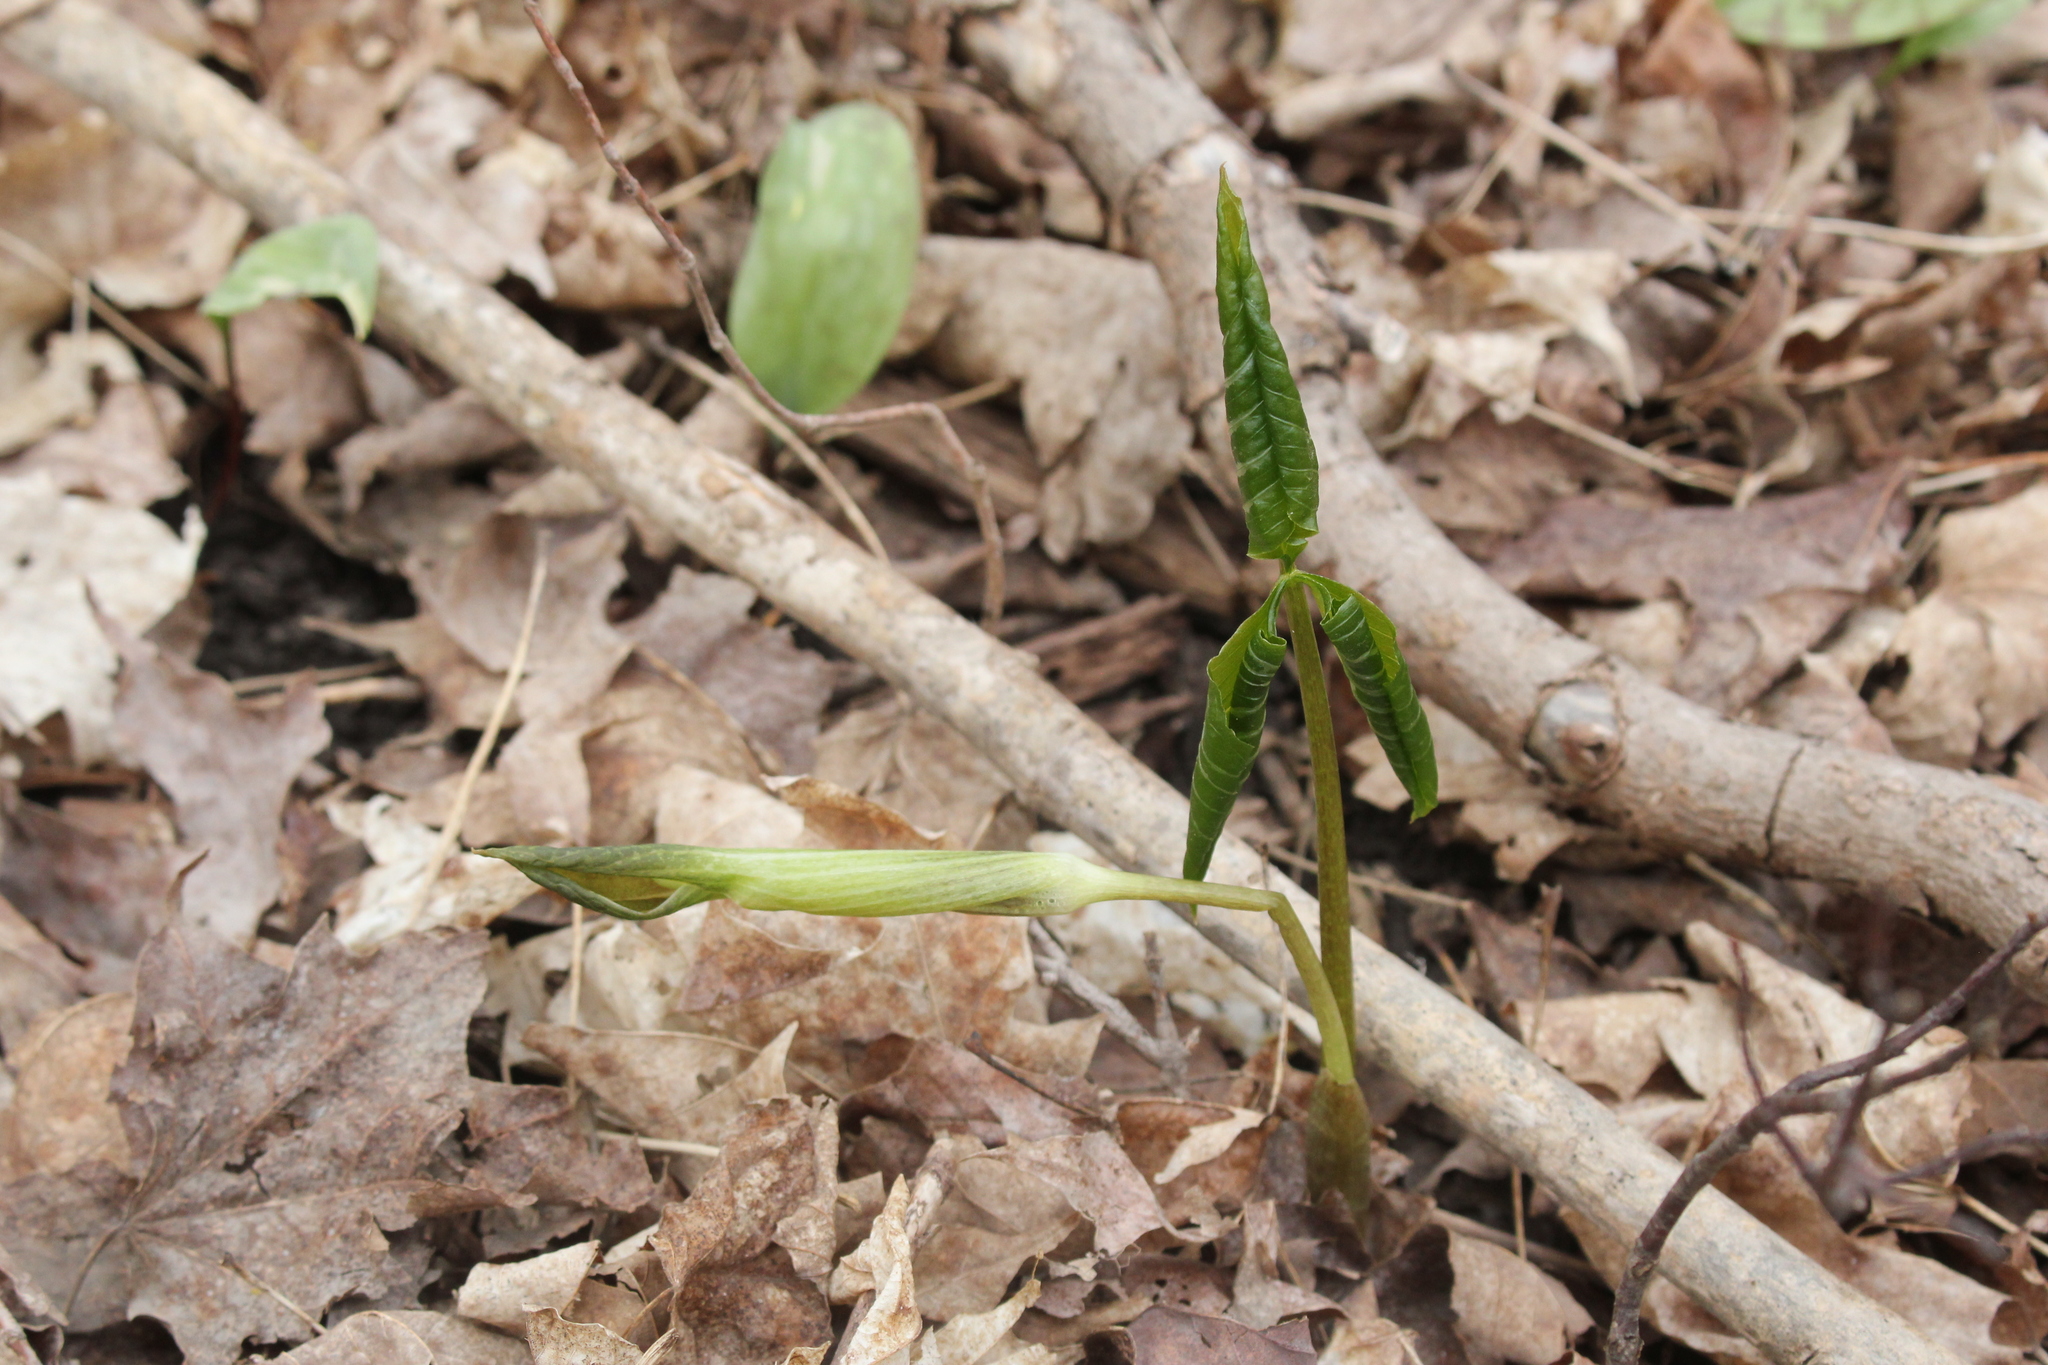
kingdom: Plantae
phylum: Tracheophyta
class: Liliopsida
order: Alismatales
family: Araceae
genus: Arisaema
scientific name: Arisaema triphyllum
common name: Jack-in-the-pulpit
